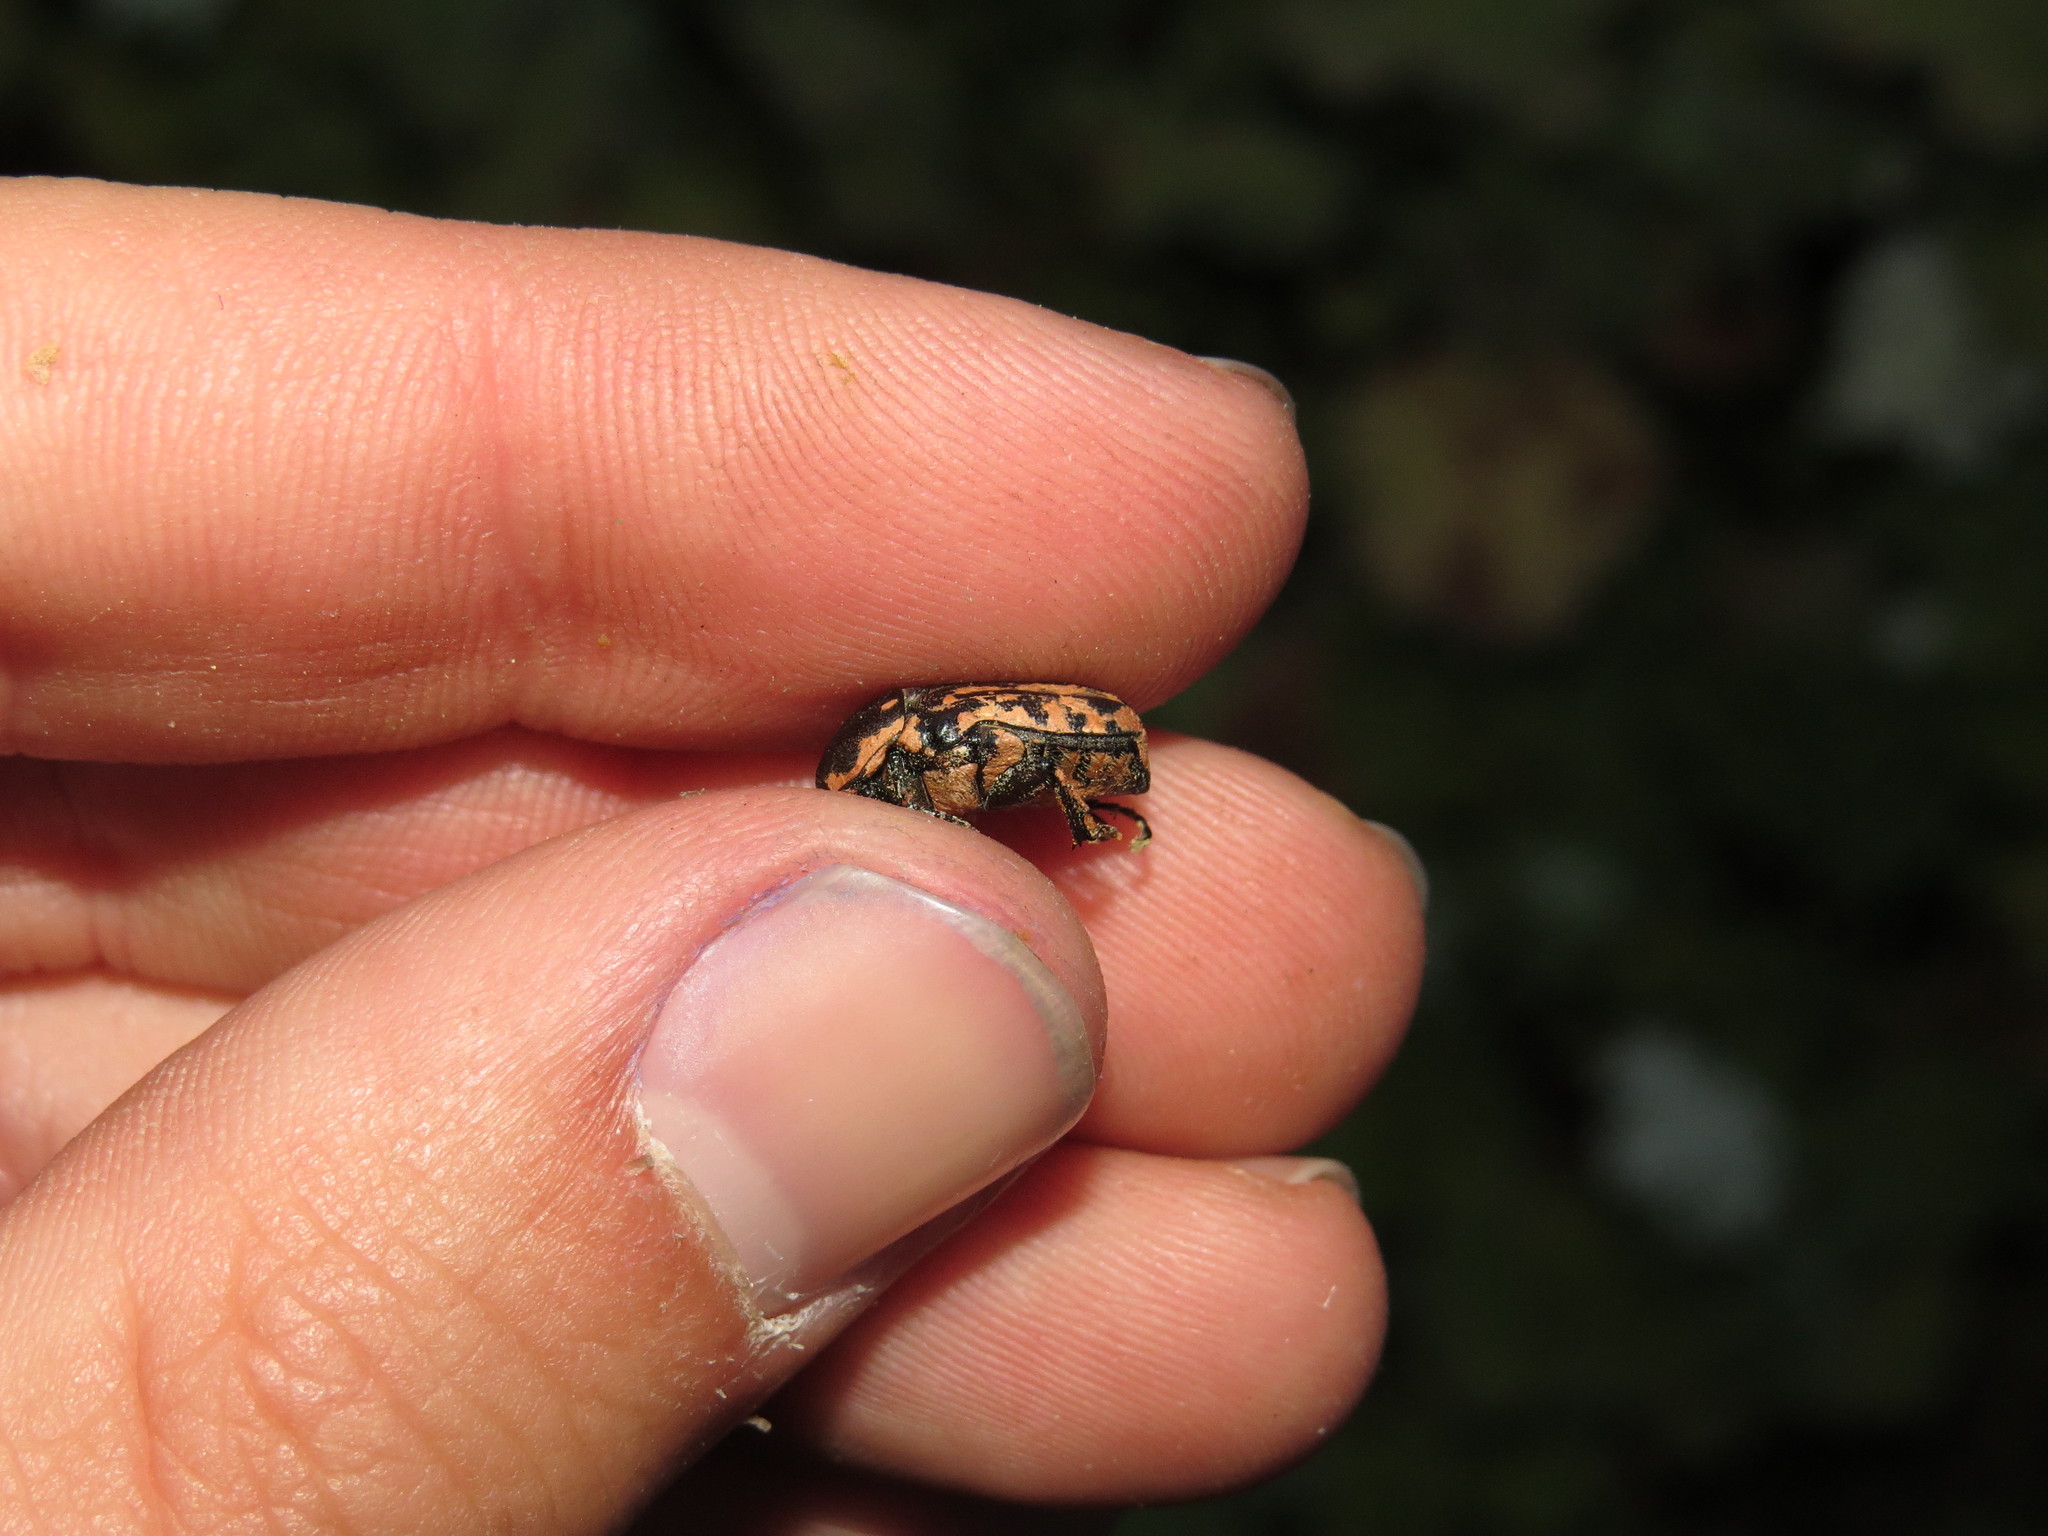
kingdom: Animalia
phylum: Arthropoda
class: Insecta
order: Coleoptera
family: Scarabaeidae
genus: Oxythyrea
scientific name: Oxythyrea cinctella
